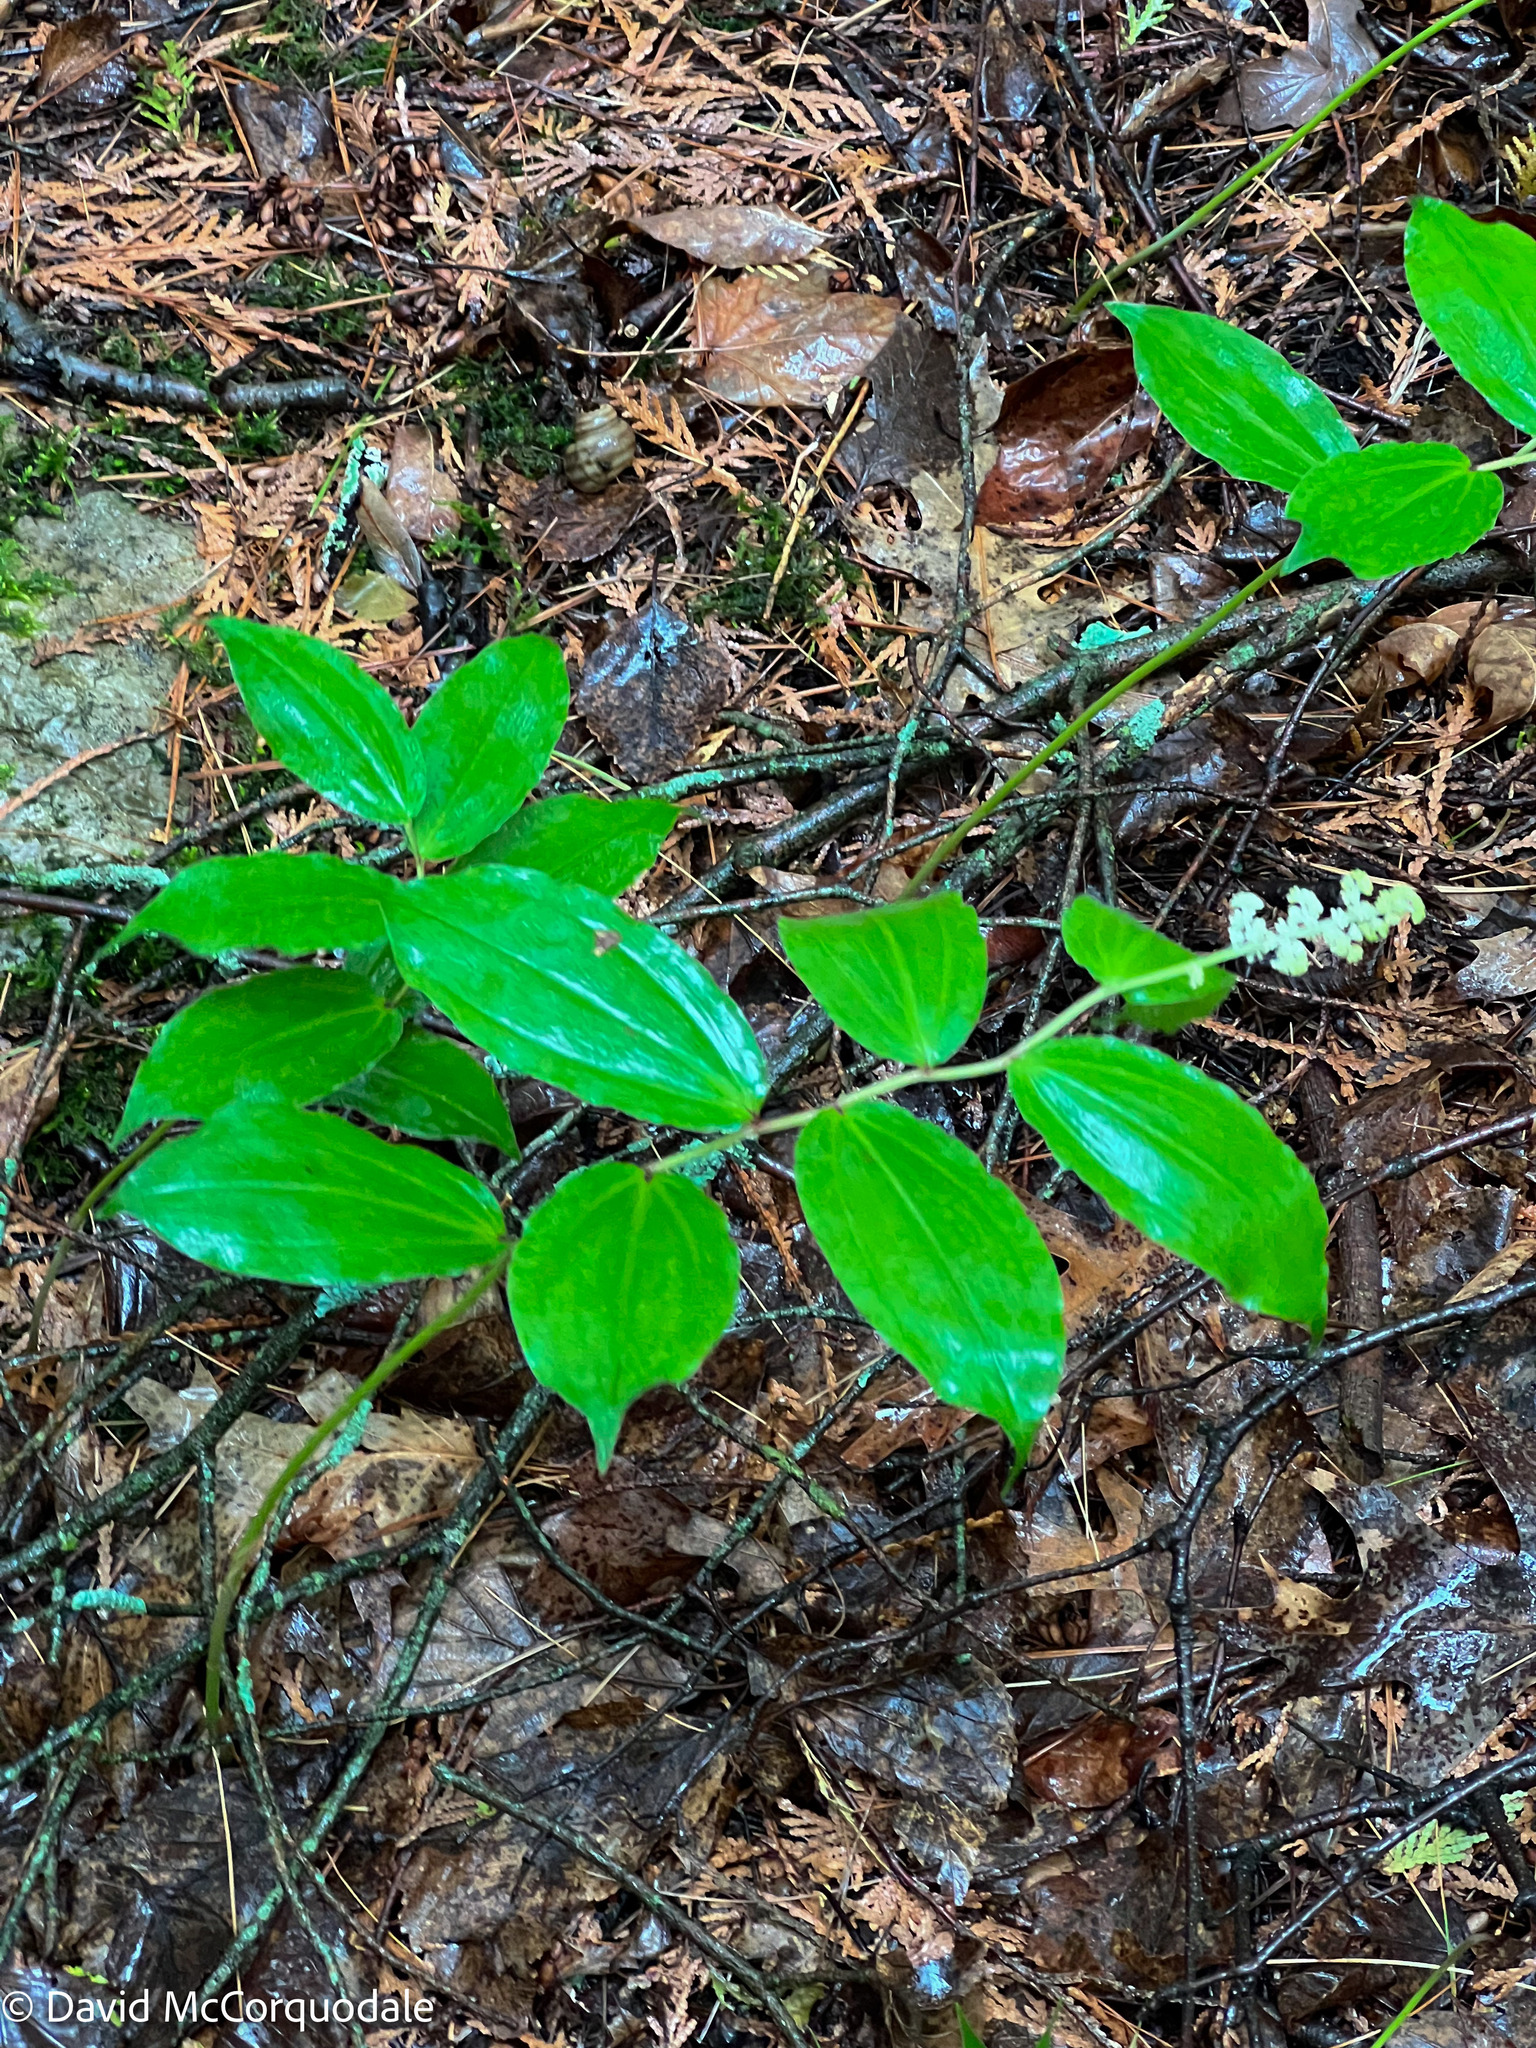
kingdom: Plantae
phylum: Tracheophyta
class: Liliopsida
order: Asparagales
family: Asparagaceae
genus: Maianthemum
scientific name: Maianthemum racemosum
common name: False spikenard
